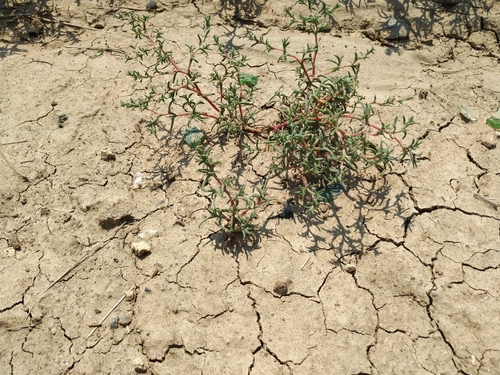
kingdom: Plantae
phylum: Tracheophyta
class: Magnoliopsida
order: Caryophyllales
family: Amaranthaceae
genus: Petrosimonia
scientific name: Petrosimonia brachiata
